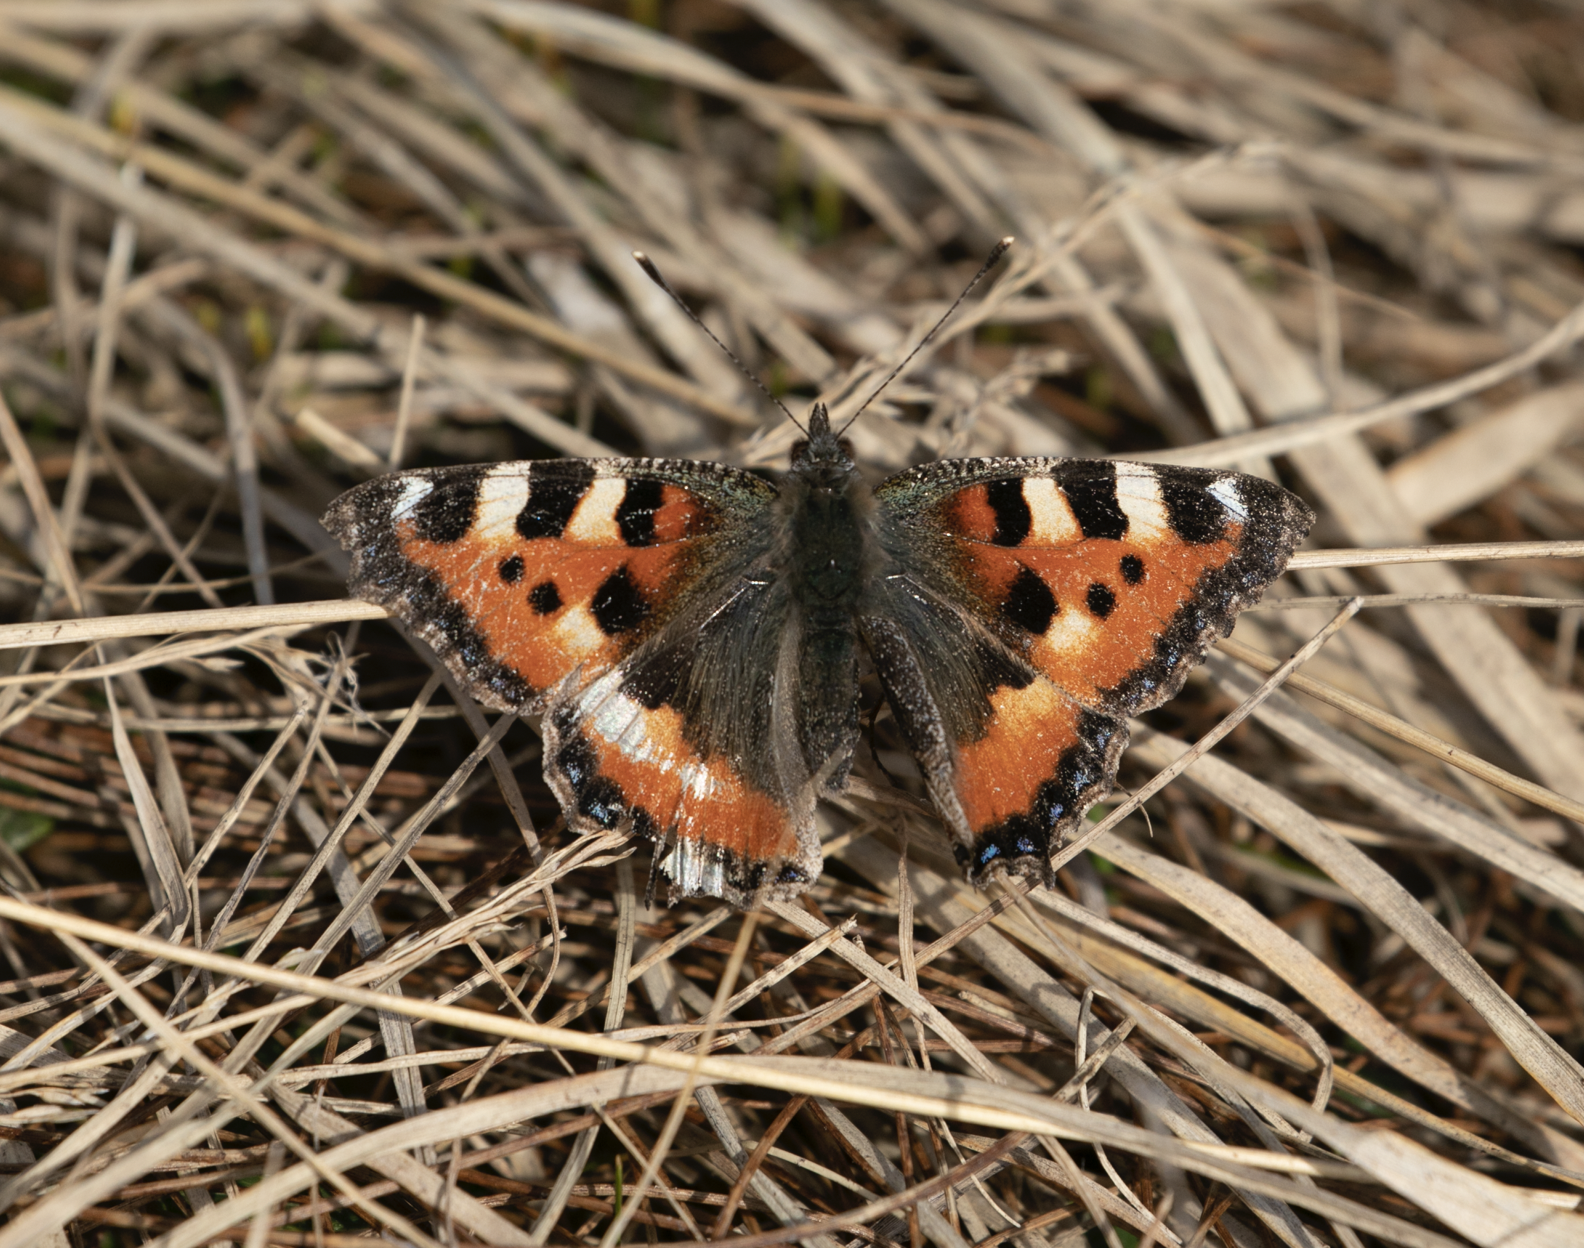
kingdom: Animalia
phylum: Arthropoda
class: Insecta
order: Lepidoptera
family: Nymphalidae
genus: Aglais
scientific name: Aglais urticae
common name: Small tortoiseshell
